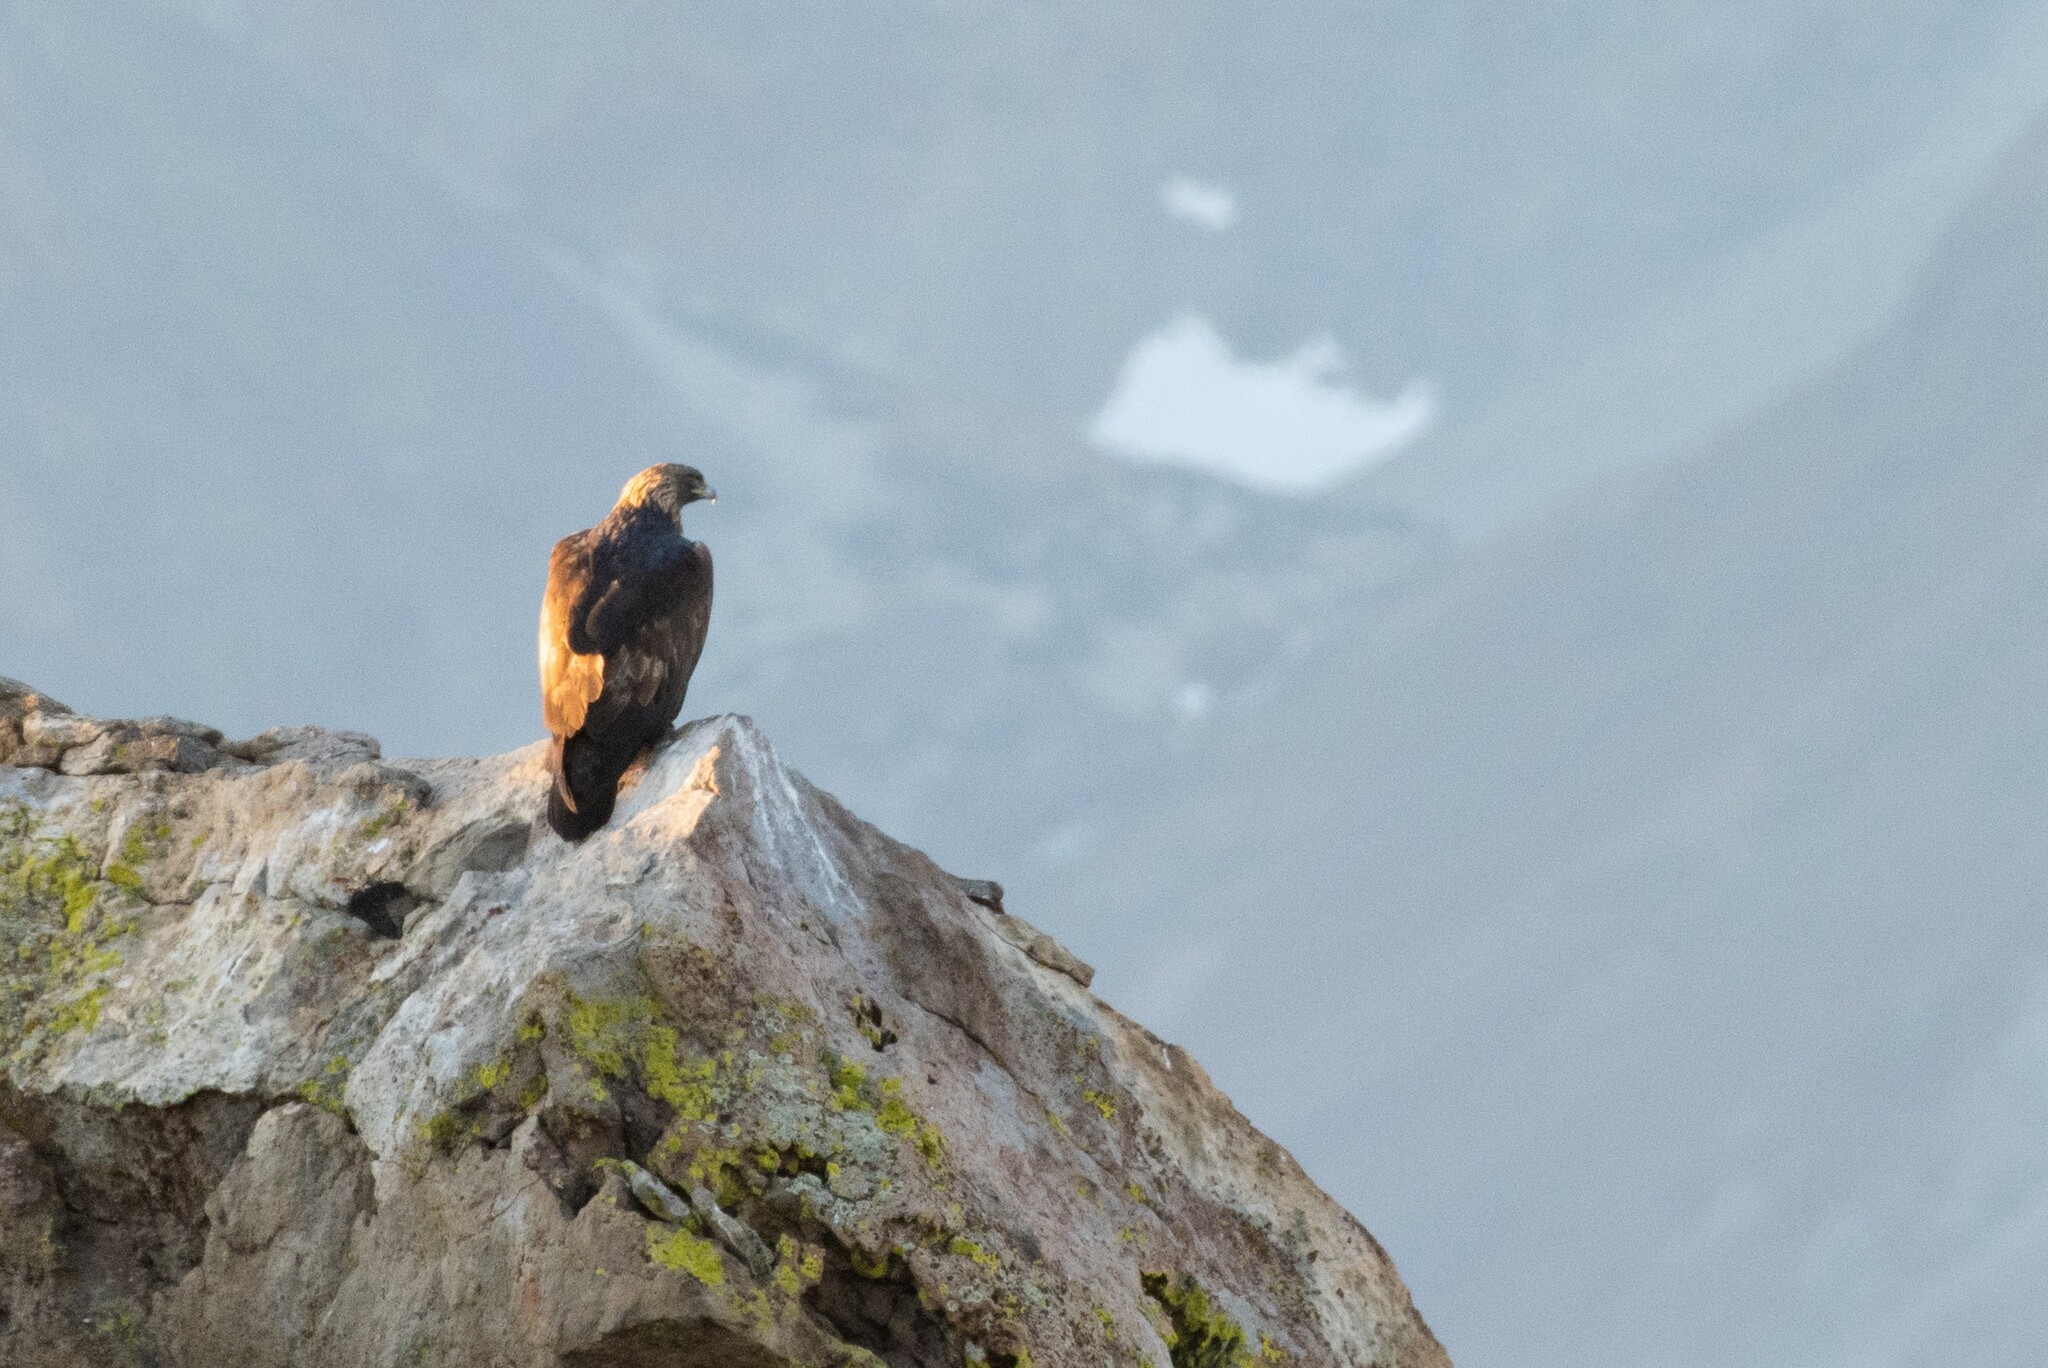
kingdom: Animalia
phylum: Chordata
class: Aves
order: Accipitriformes
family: Accipitridae
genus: Aquila
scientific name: Aquila chrysaetos
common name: Golden eagle
